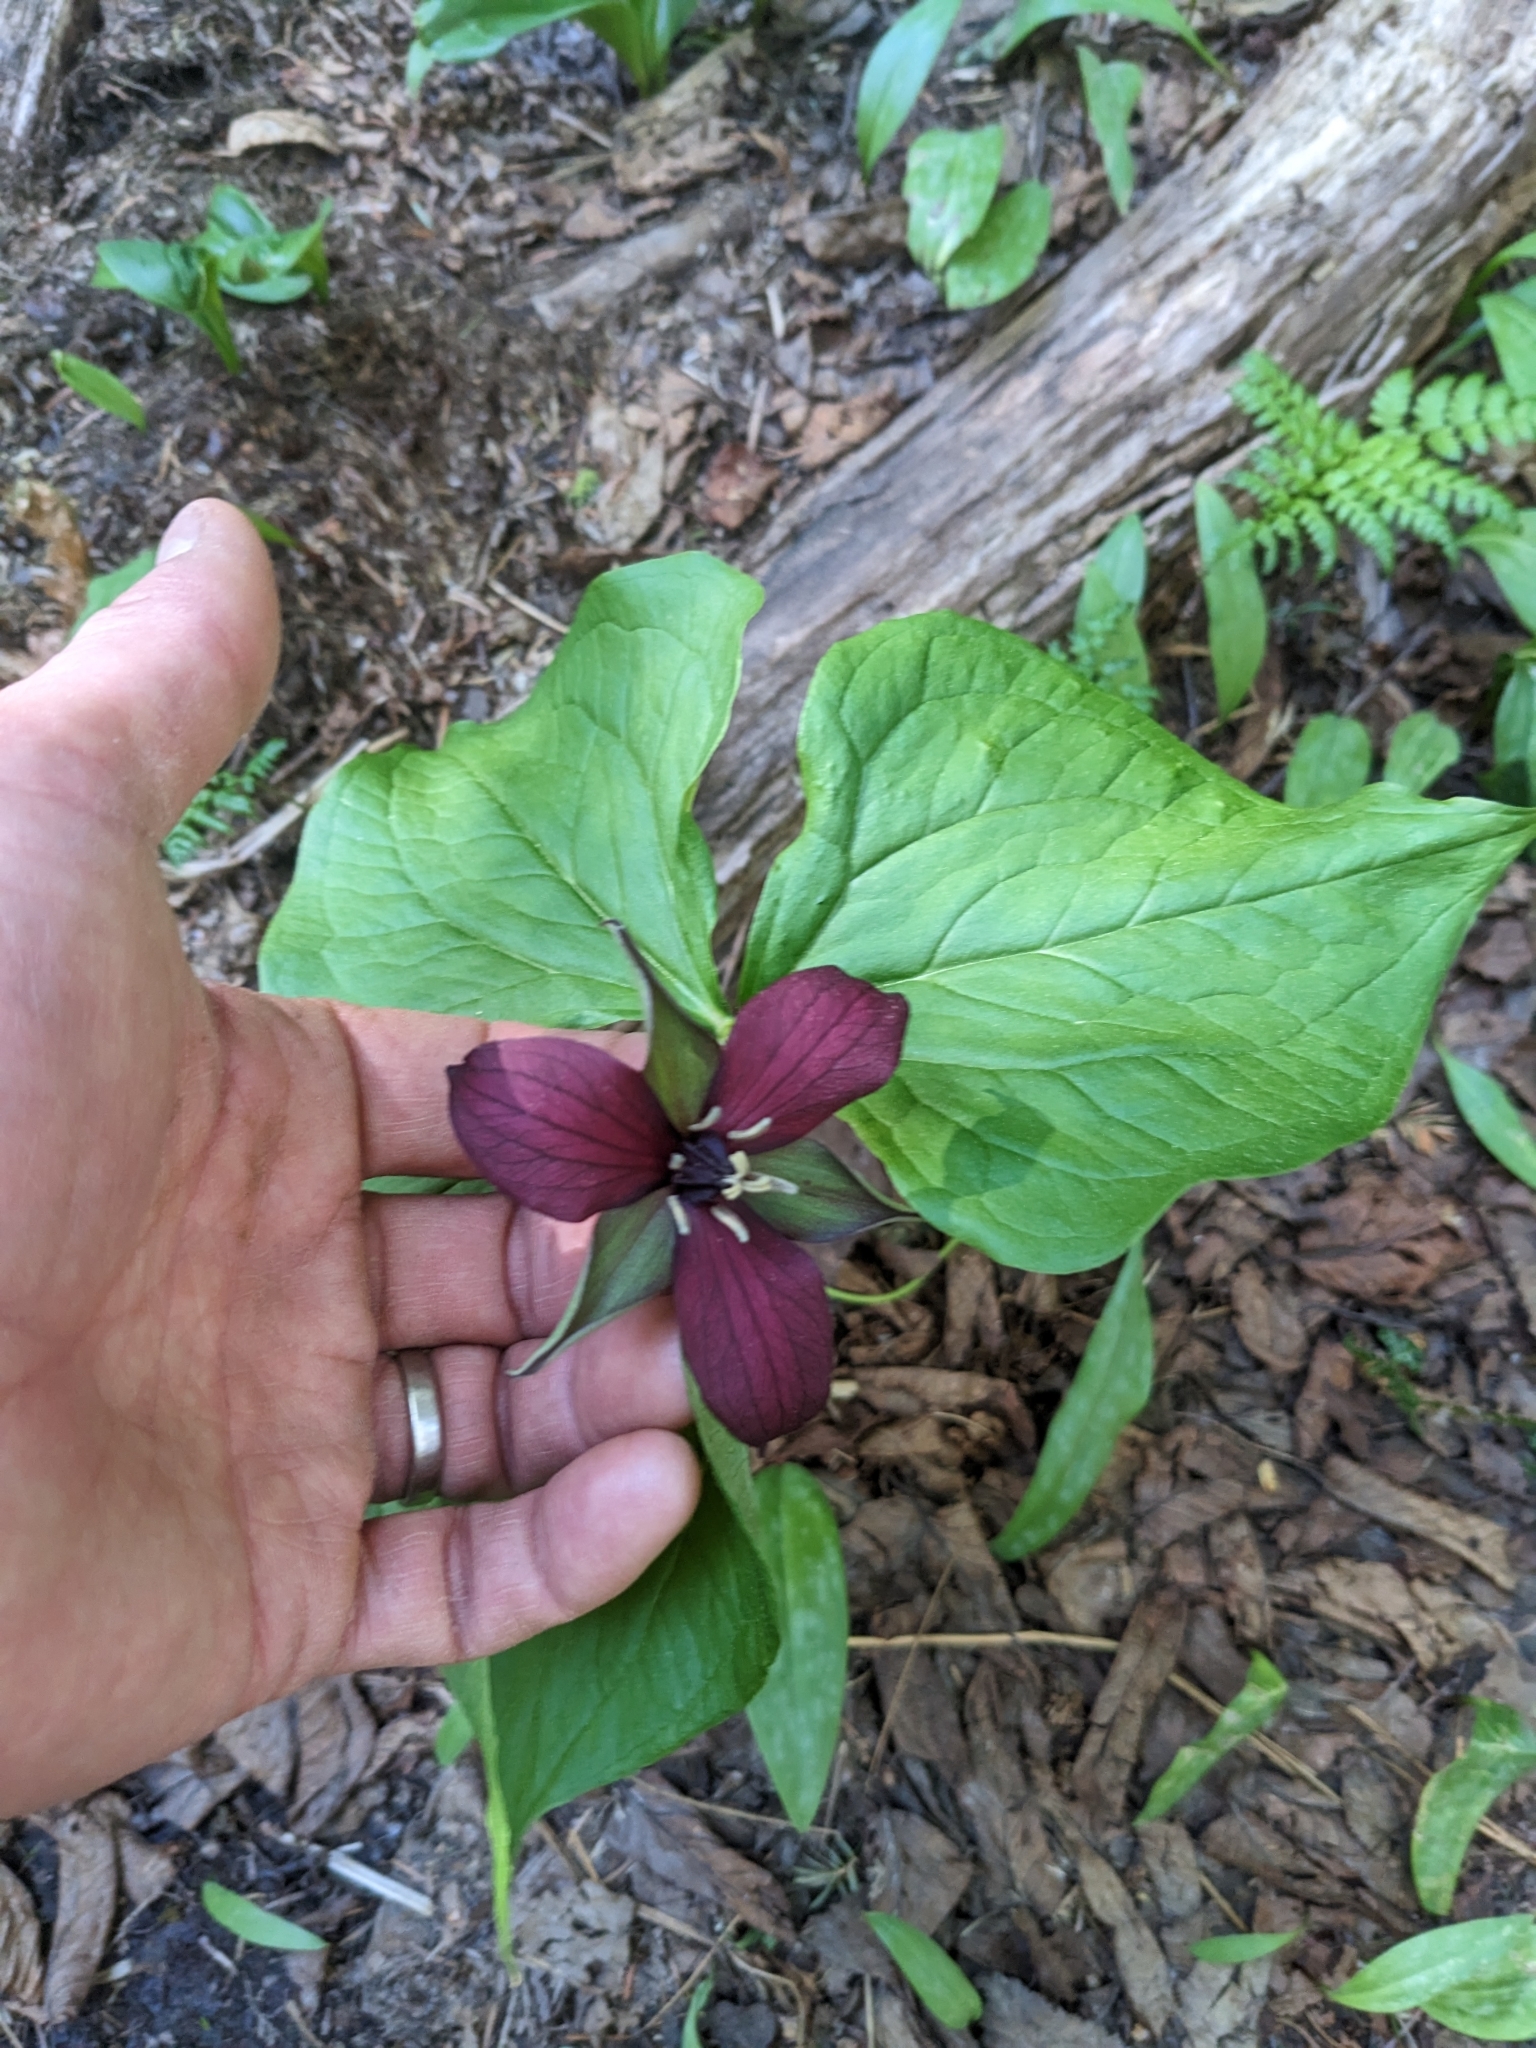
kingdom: Plantae
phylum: Tracheophyta
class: Liliopsida
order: Liliales
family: Melanthiaceae
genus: Trillium
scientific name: Trillium erectum
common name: Purple trillium
